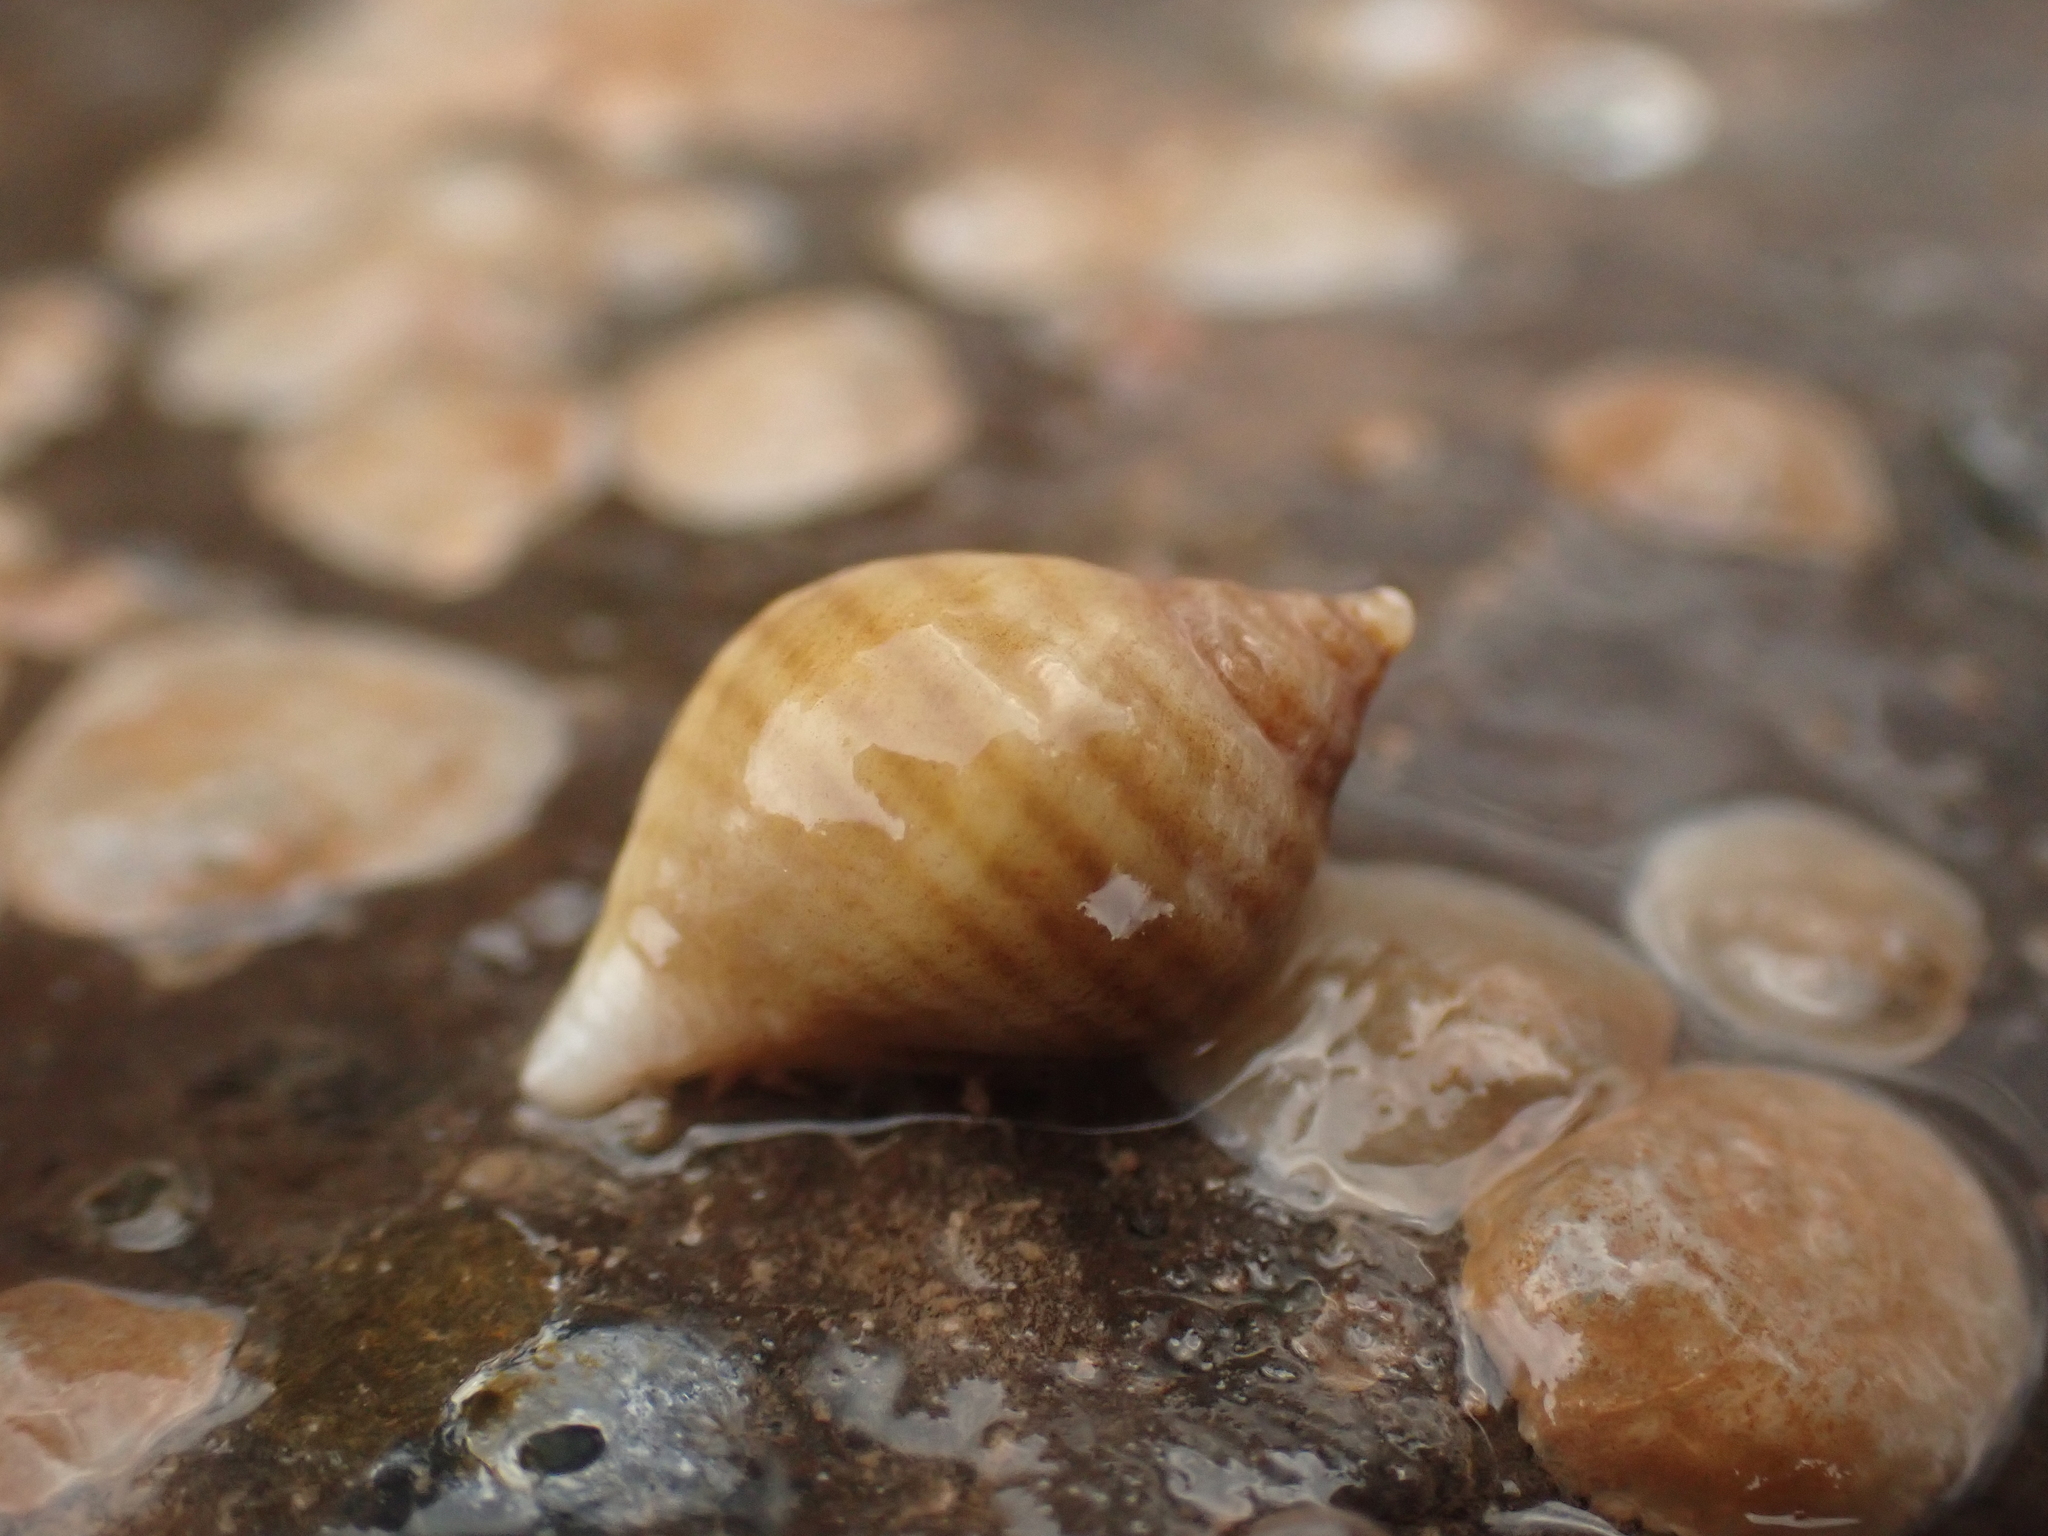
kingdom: Animalia
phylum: Mollusca
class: Gastropoda
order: Neogastropoda
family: Muricidae
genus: Nucella
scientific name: Nucella lapillus
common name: Dog whelk
